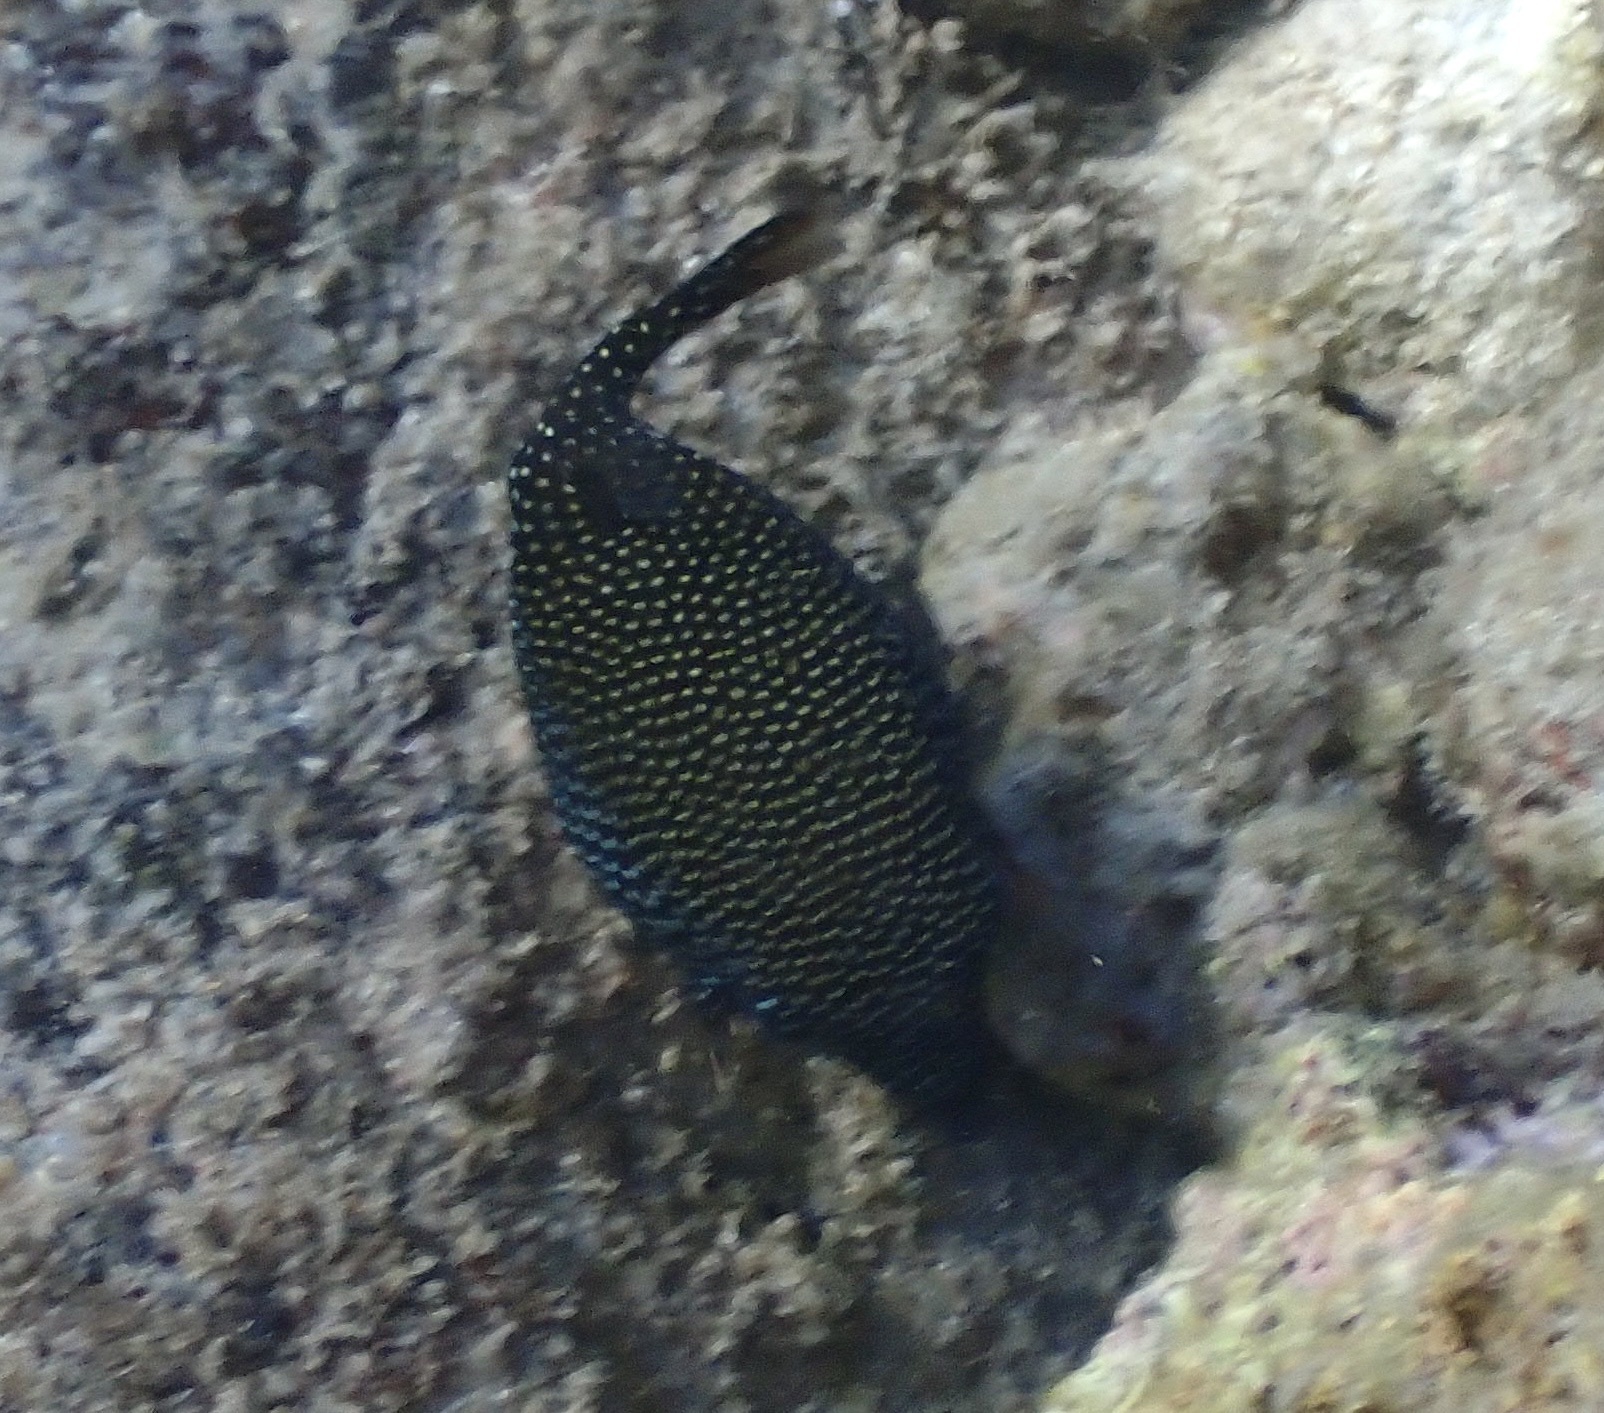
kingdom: Animalia
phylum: Chordata
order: Tetraodontiformes
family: Ostraciidae
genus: Ostracion
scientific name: Ostracion meleagris
